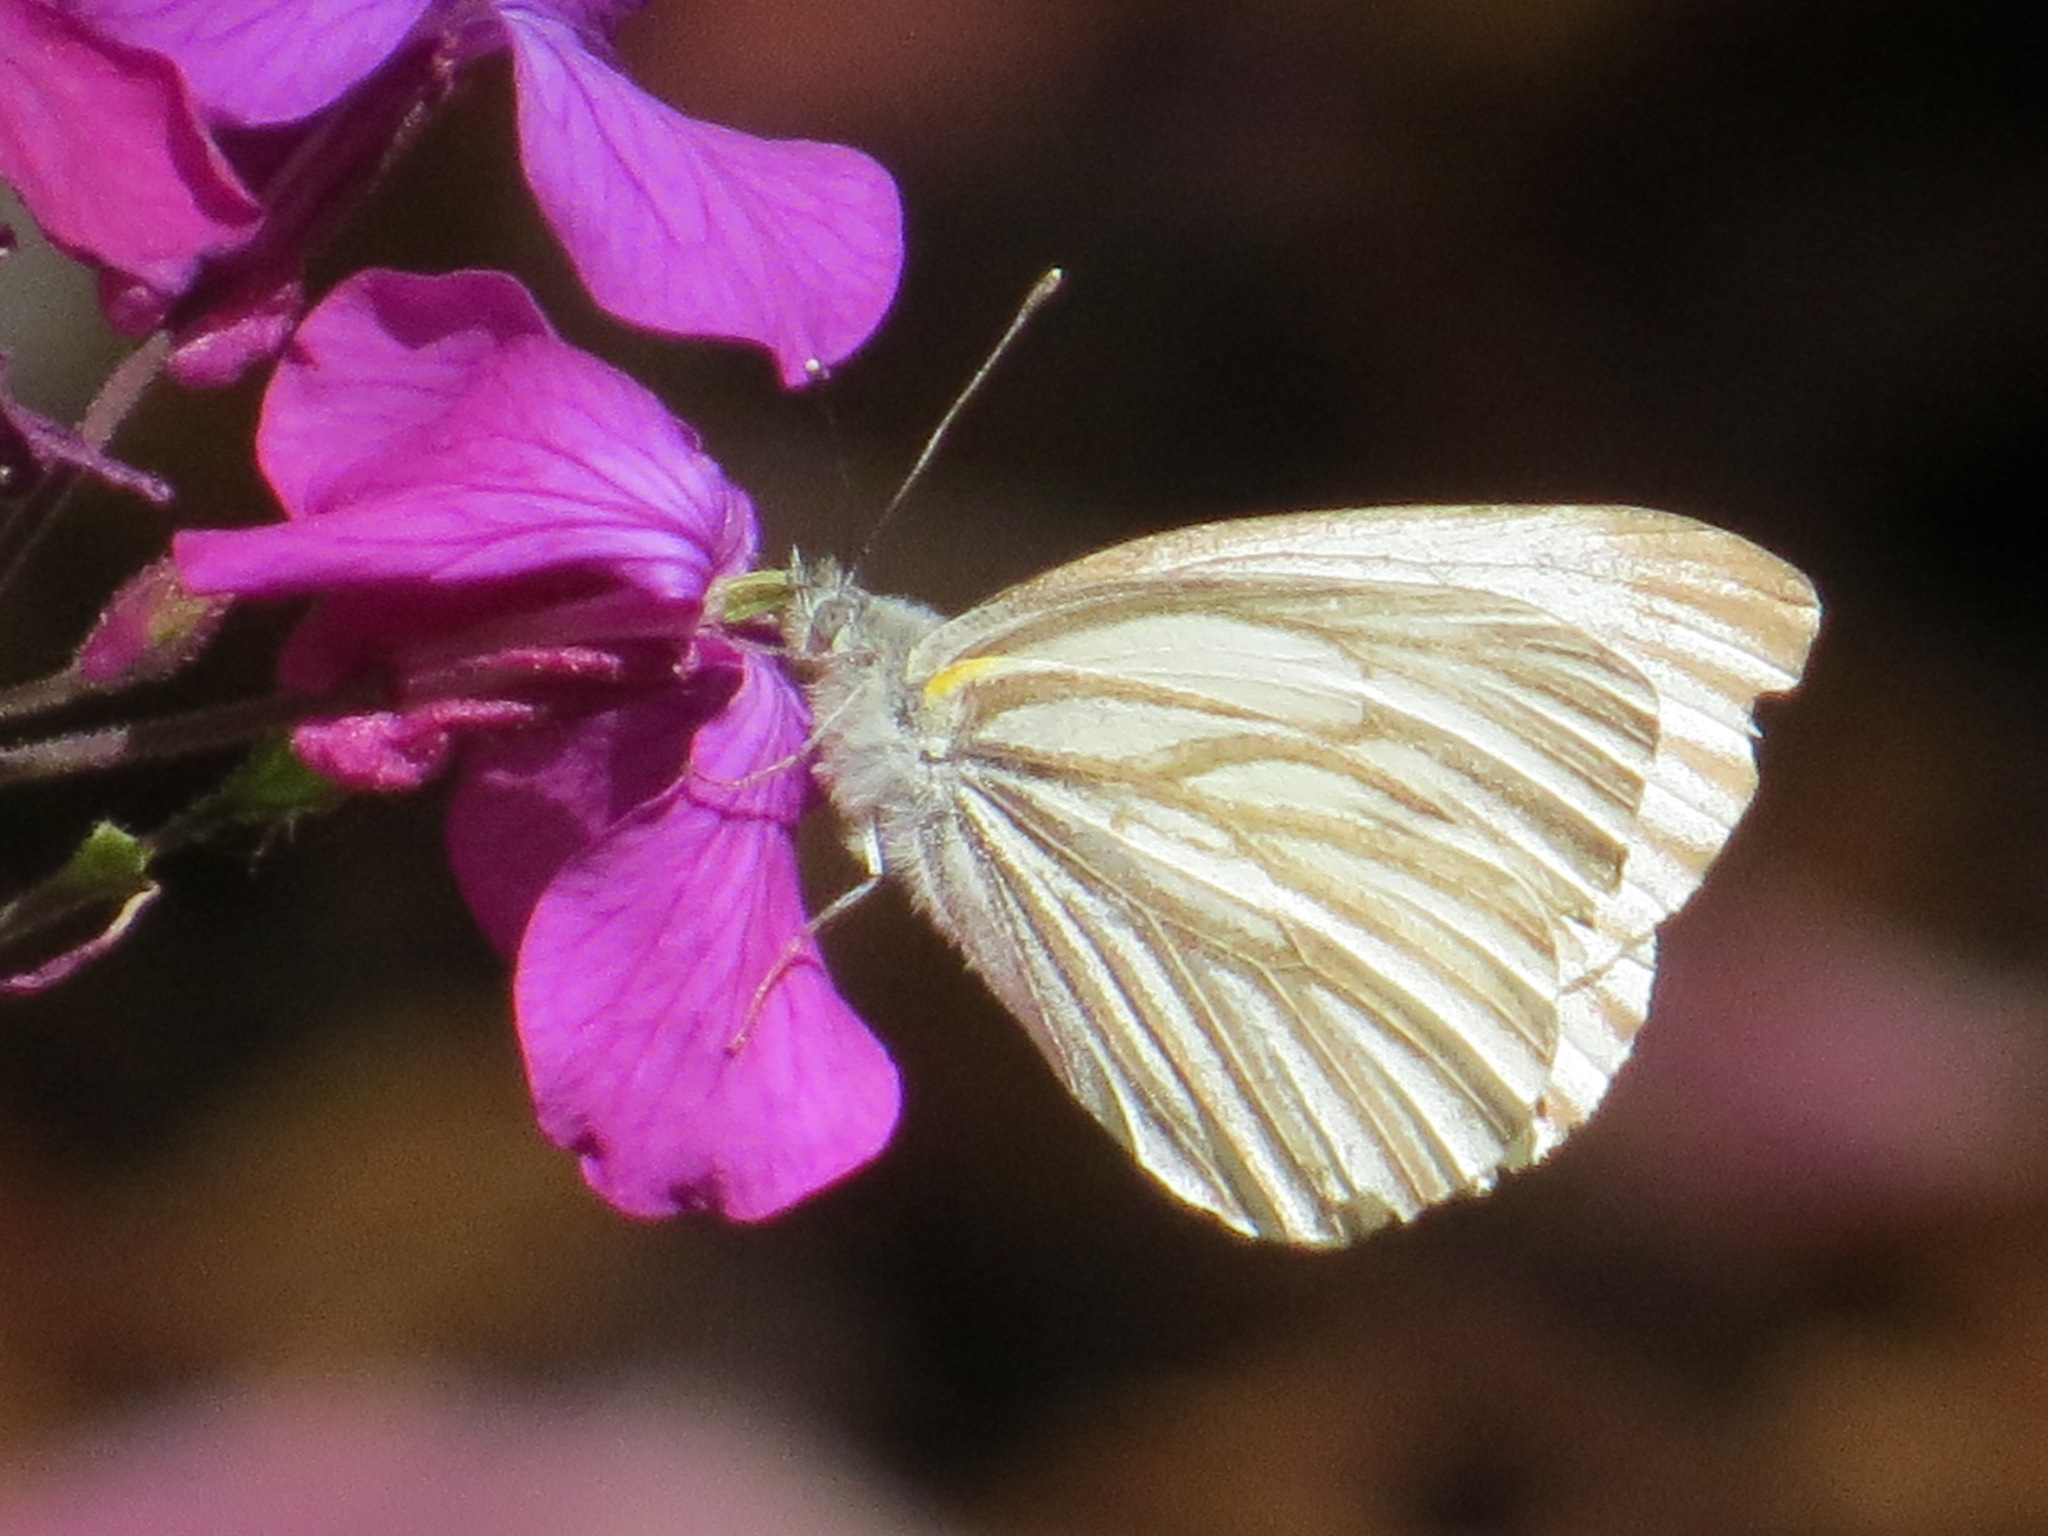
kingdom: Animalia
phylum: Arthropoda
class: Insecta
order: Lepidoptera
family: Pieridae
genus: Pieris
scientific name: Pieris marginalis
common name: Margined white
